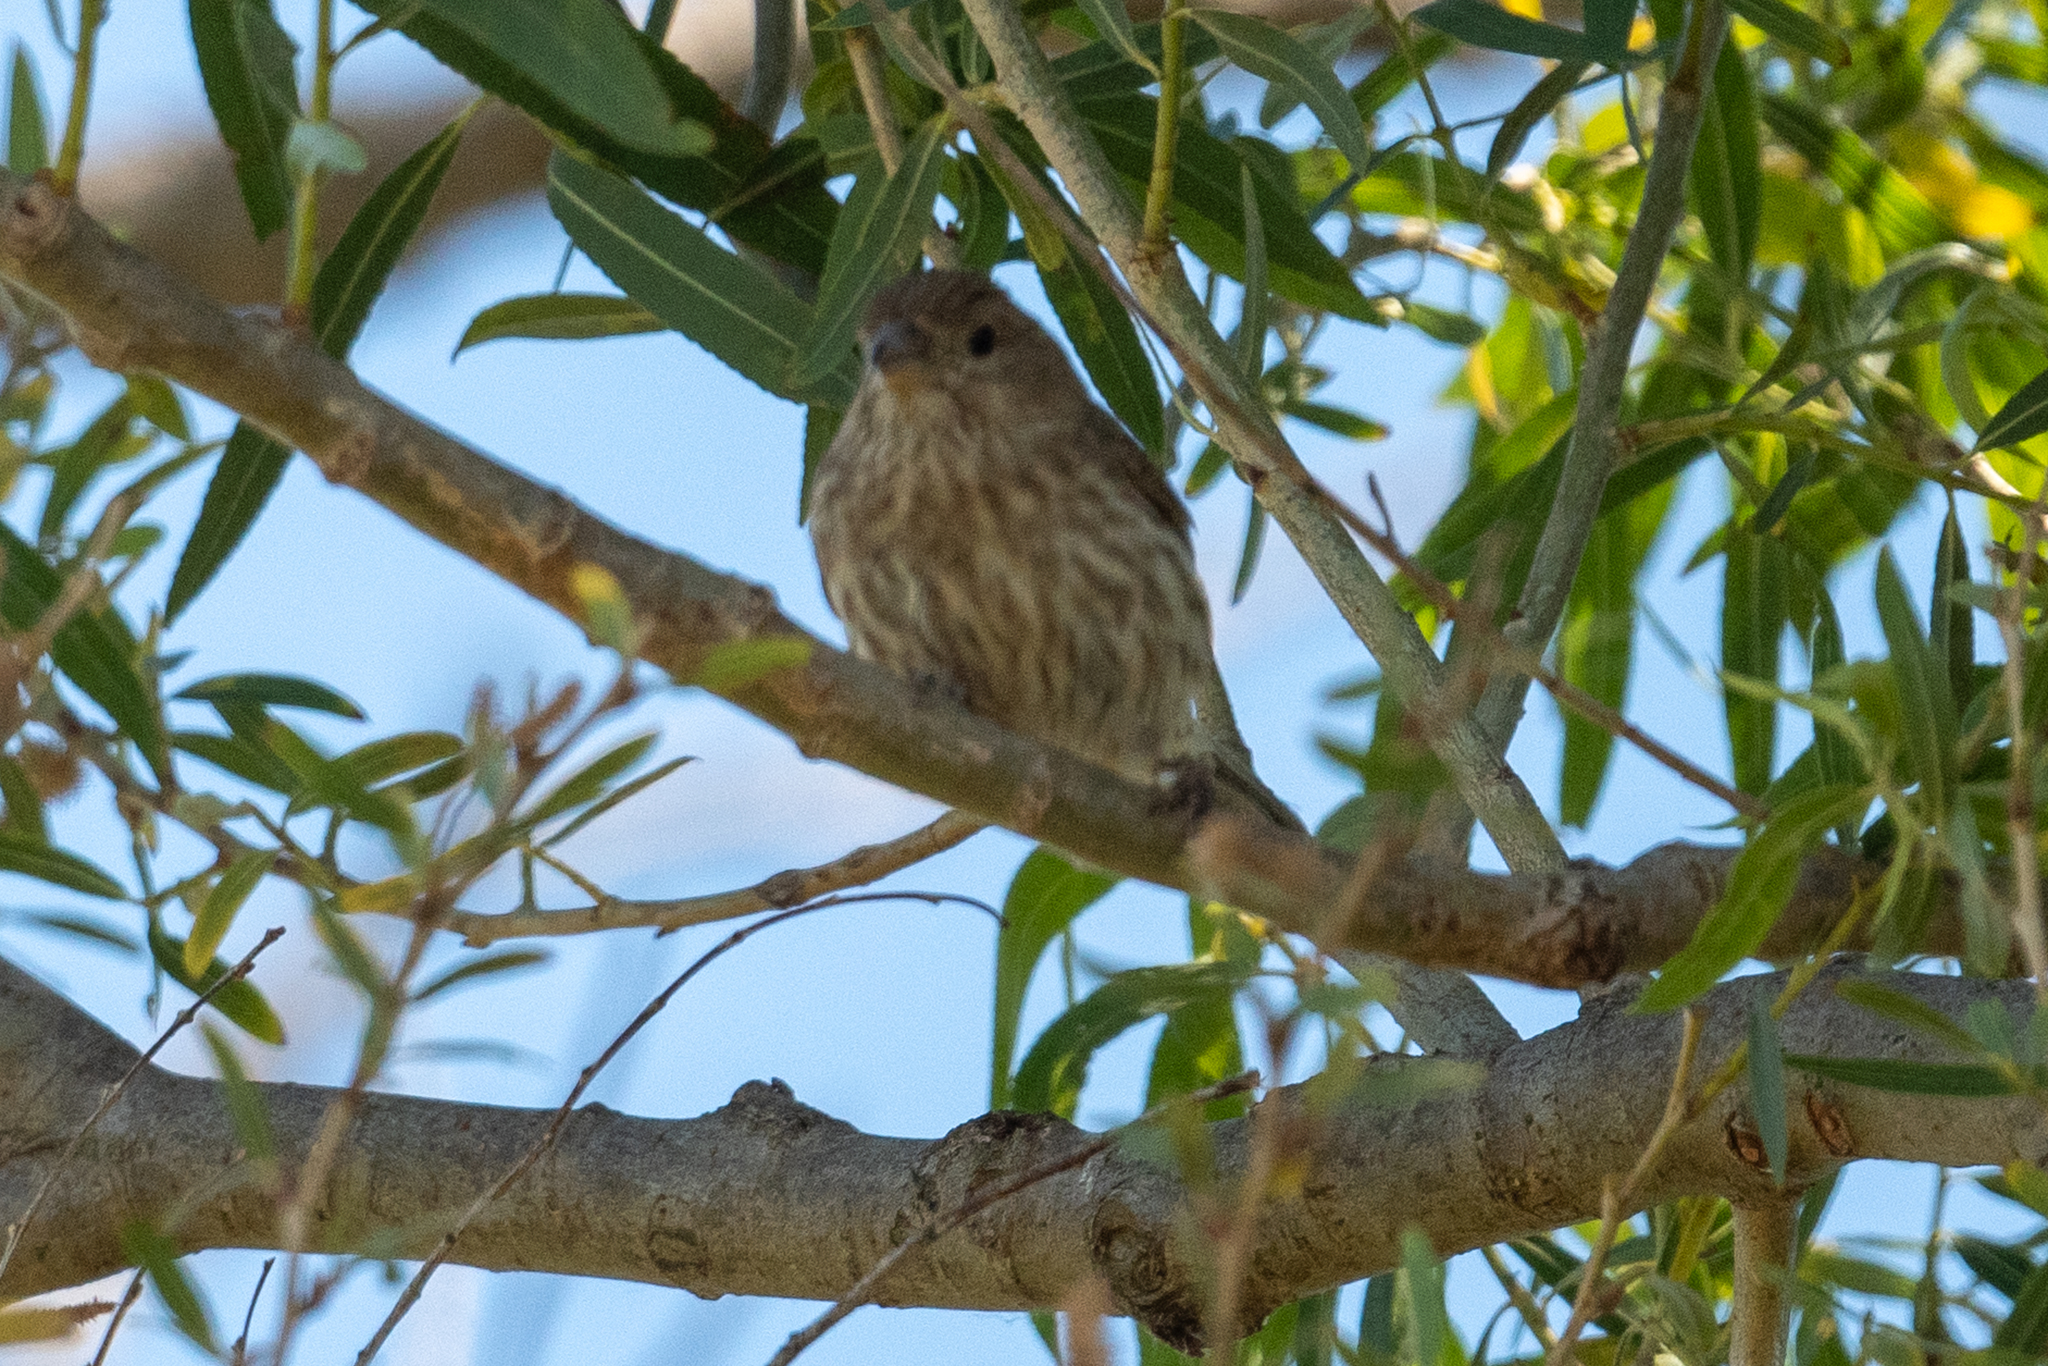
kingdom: Animalia
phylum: Chordata
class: Aves
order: Passeriformes
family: Fringillidae
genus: Haemorhous
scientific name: Haemorhous mexicanus
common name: House finch
